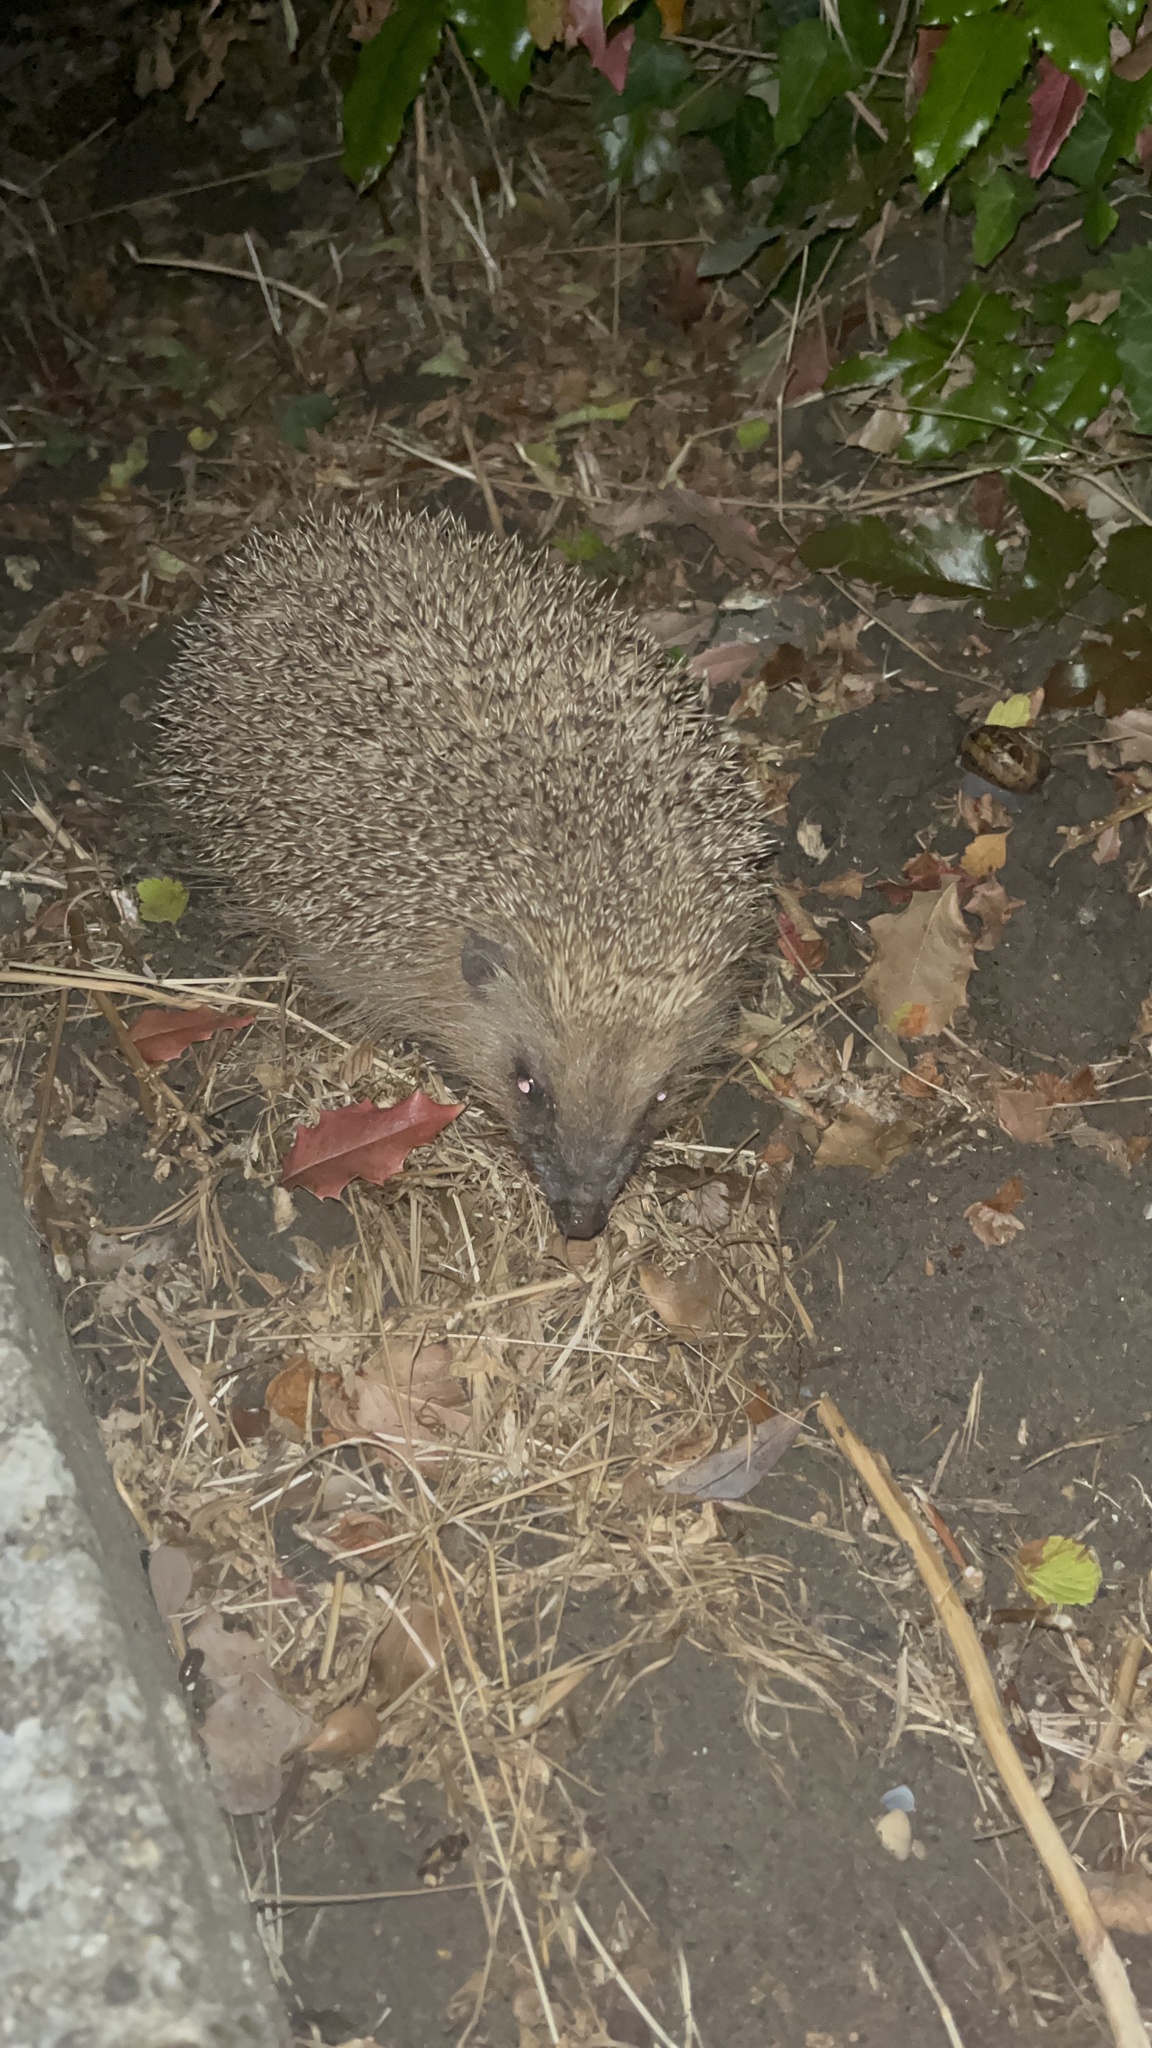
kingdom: Animalia
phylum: Chordata
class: Mammalia
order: Erinaceomorpha
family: Erinaceidae
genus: Erinaceus
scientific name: Erinaceus europaeus
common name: West european hedgehog
